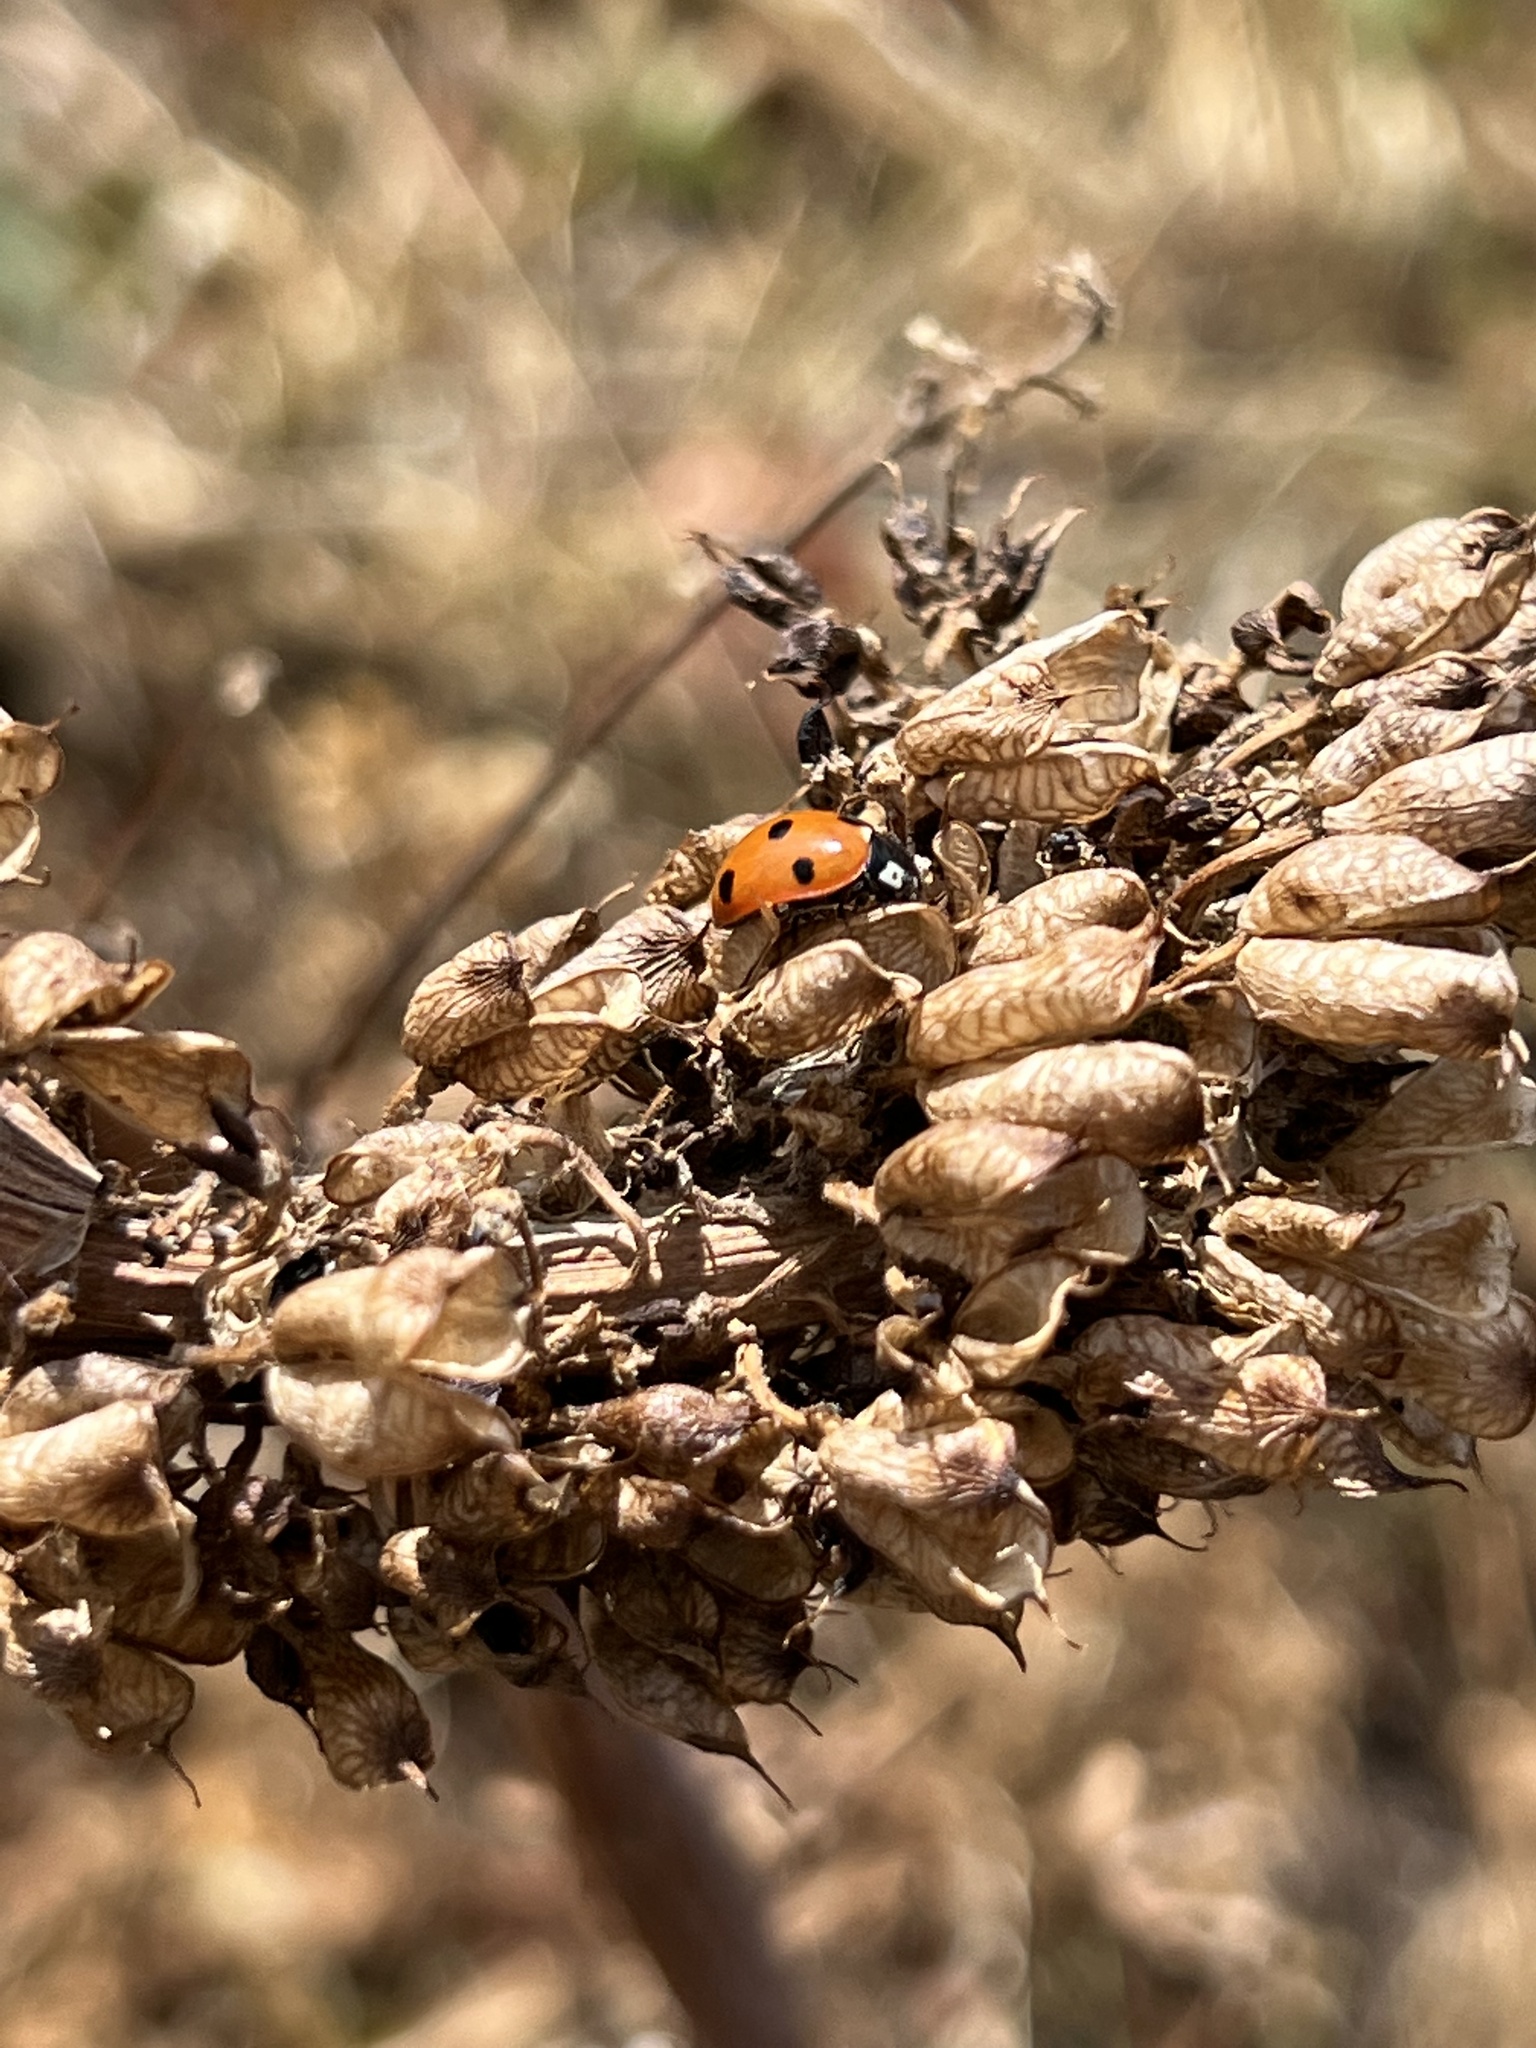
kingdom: Animalia
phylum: Arthropoda
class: Insecta
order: Coleoptera
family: Coccinellidae
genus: Coccinella
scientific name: Coccinella septempunctata
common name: Sevenspotted lady beetle
